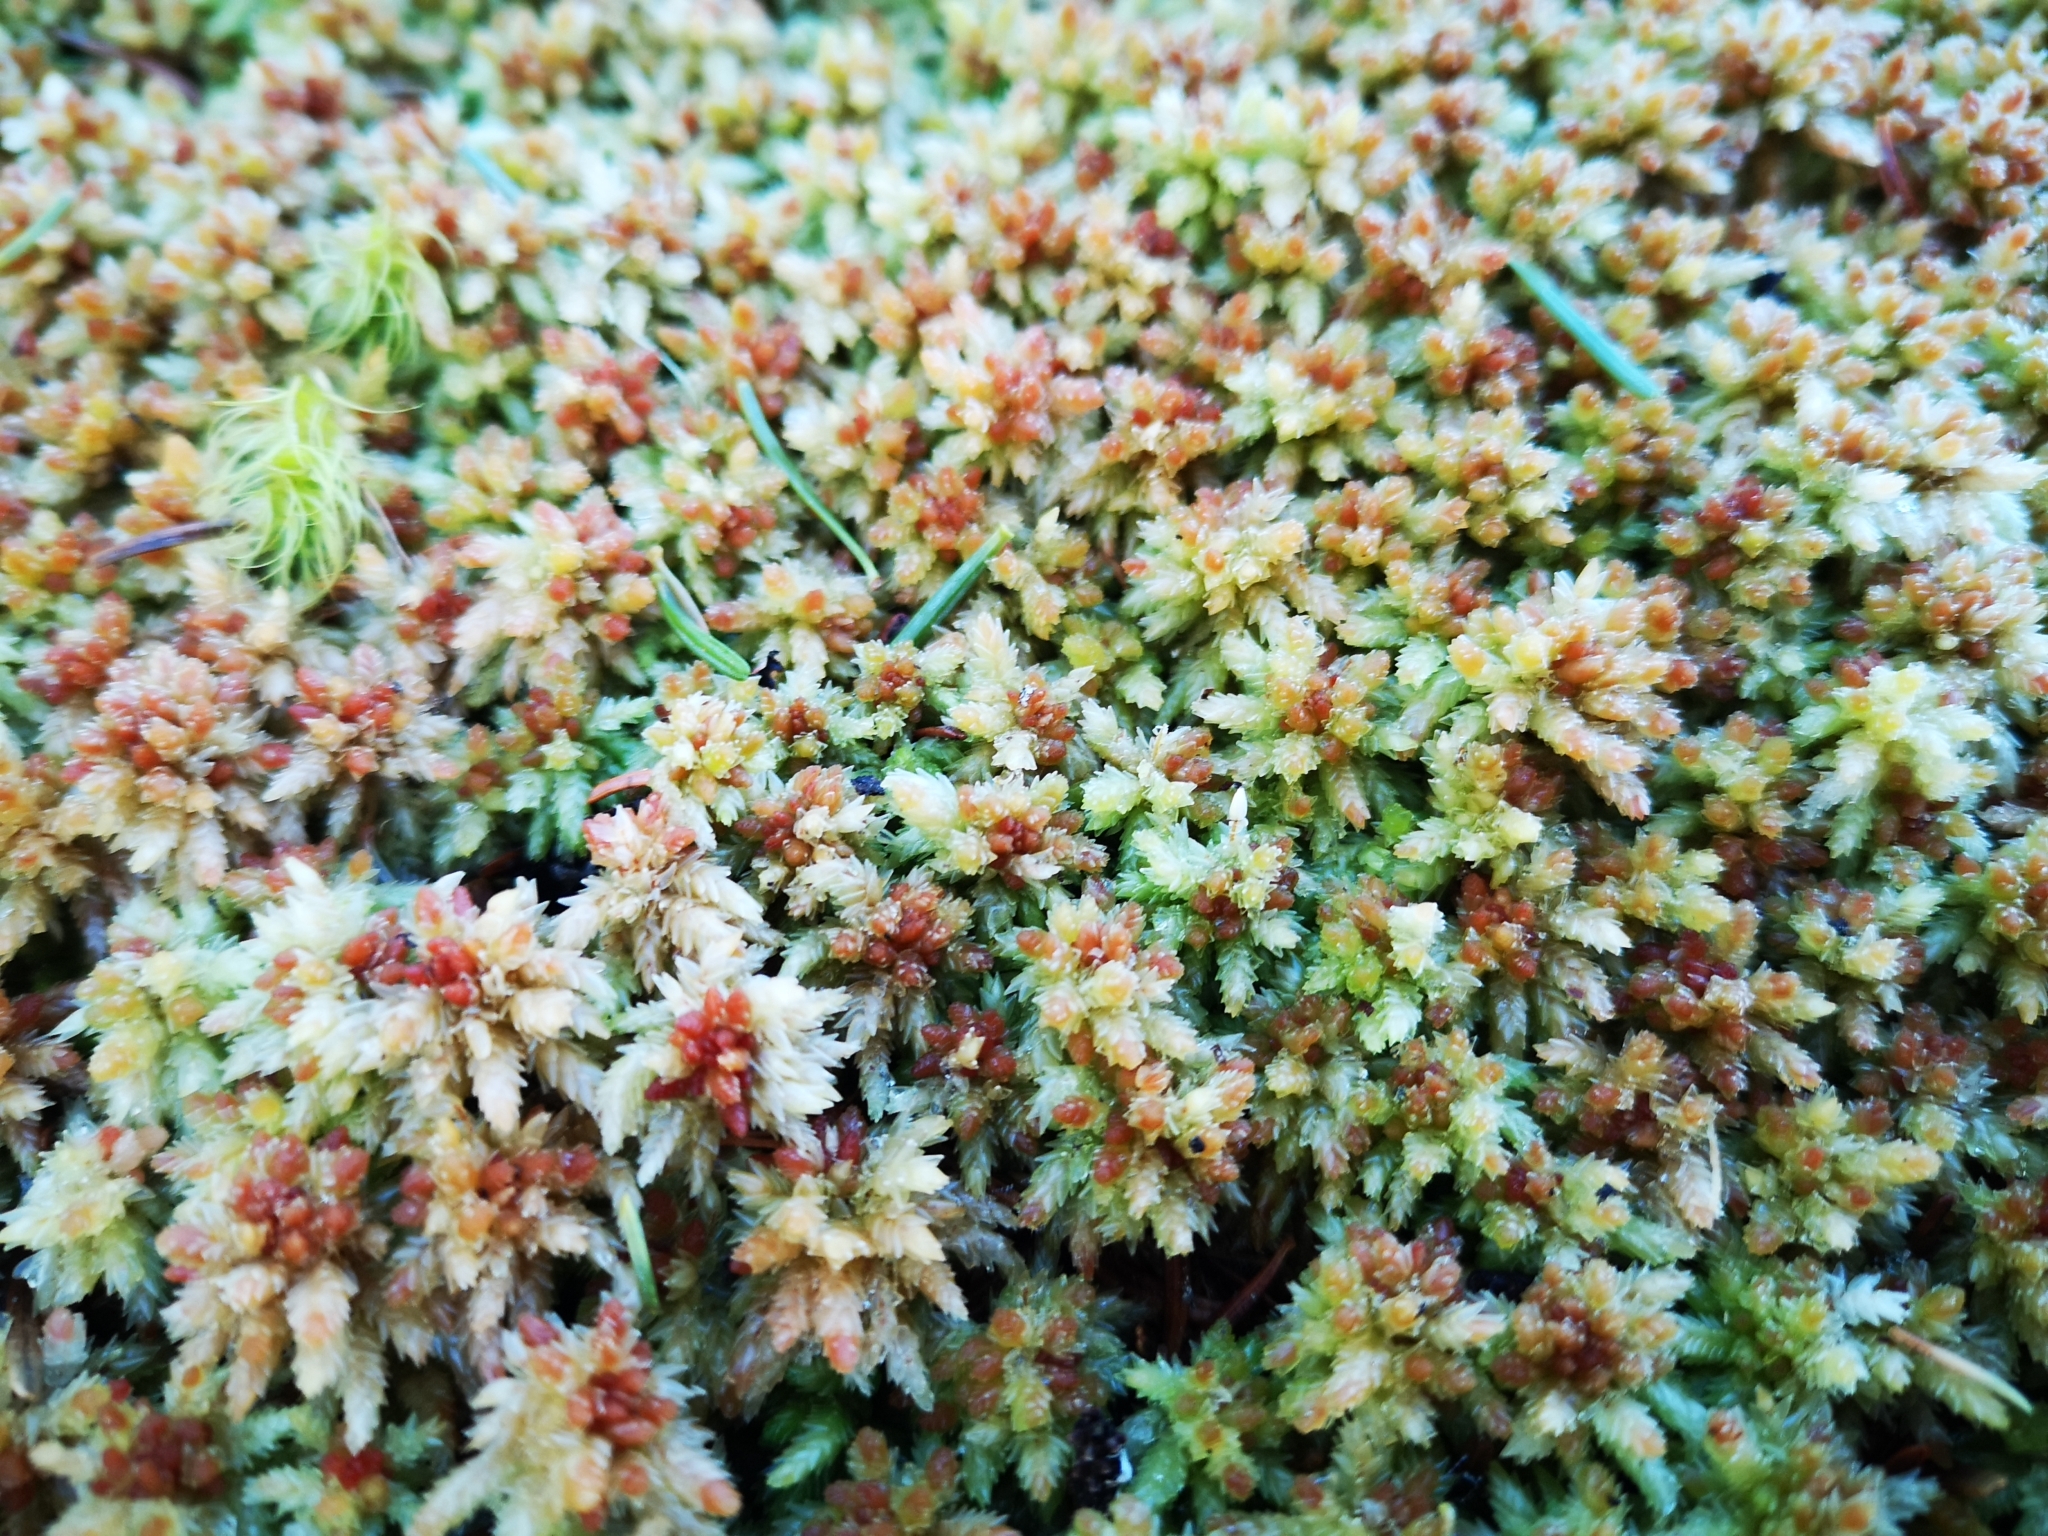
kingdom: Plantae
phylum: Bryophyta
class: Sphagnopsida
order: Sphagnales
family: Sphagnaceae
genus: Sphagnum
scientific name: Sphagnum palustre
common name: Blunt-leaved bog-moss
